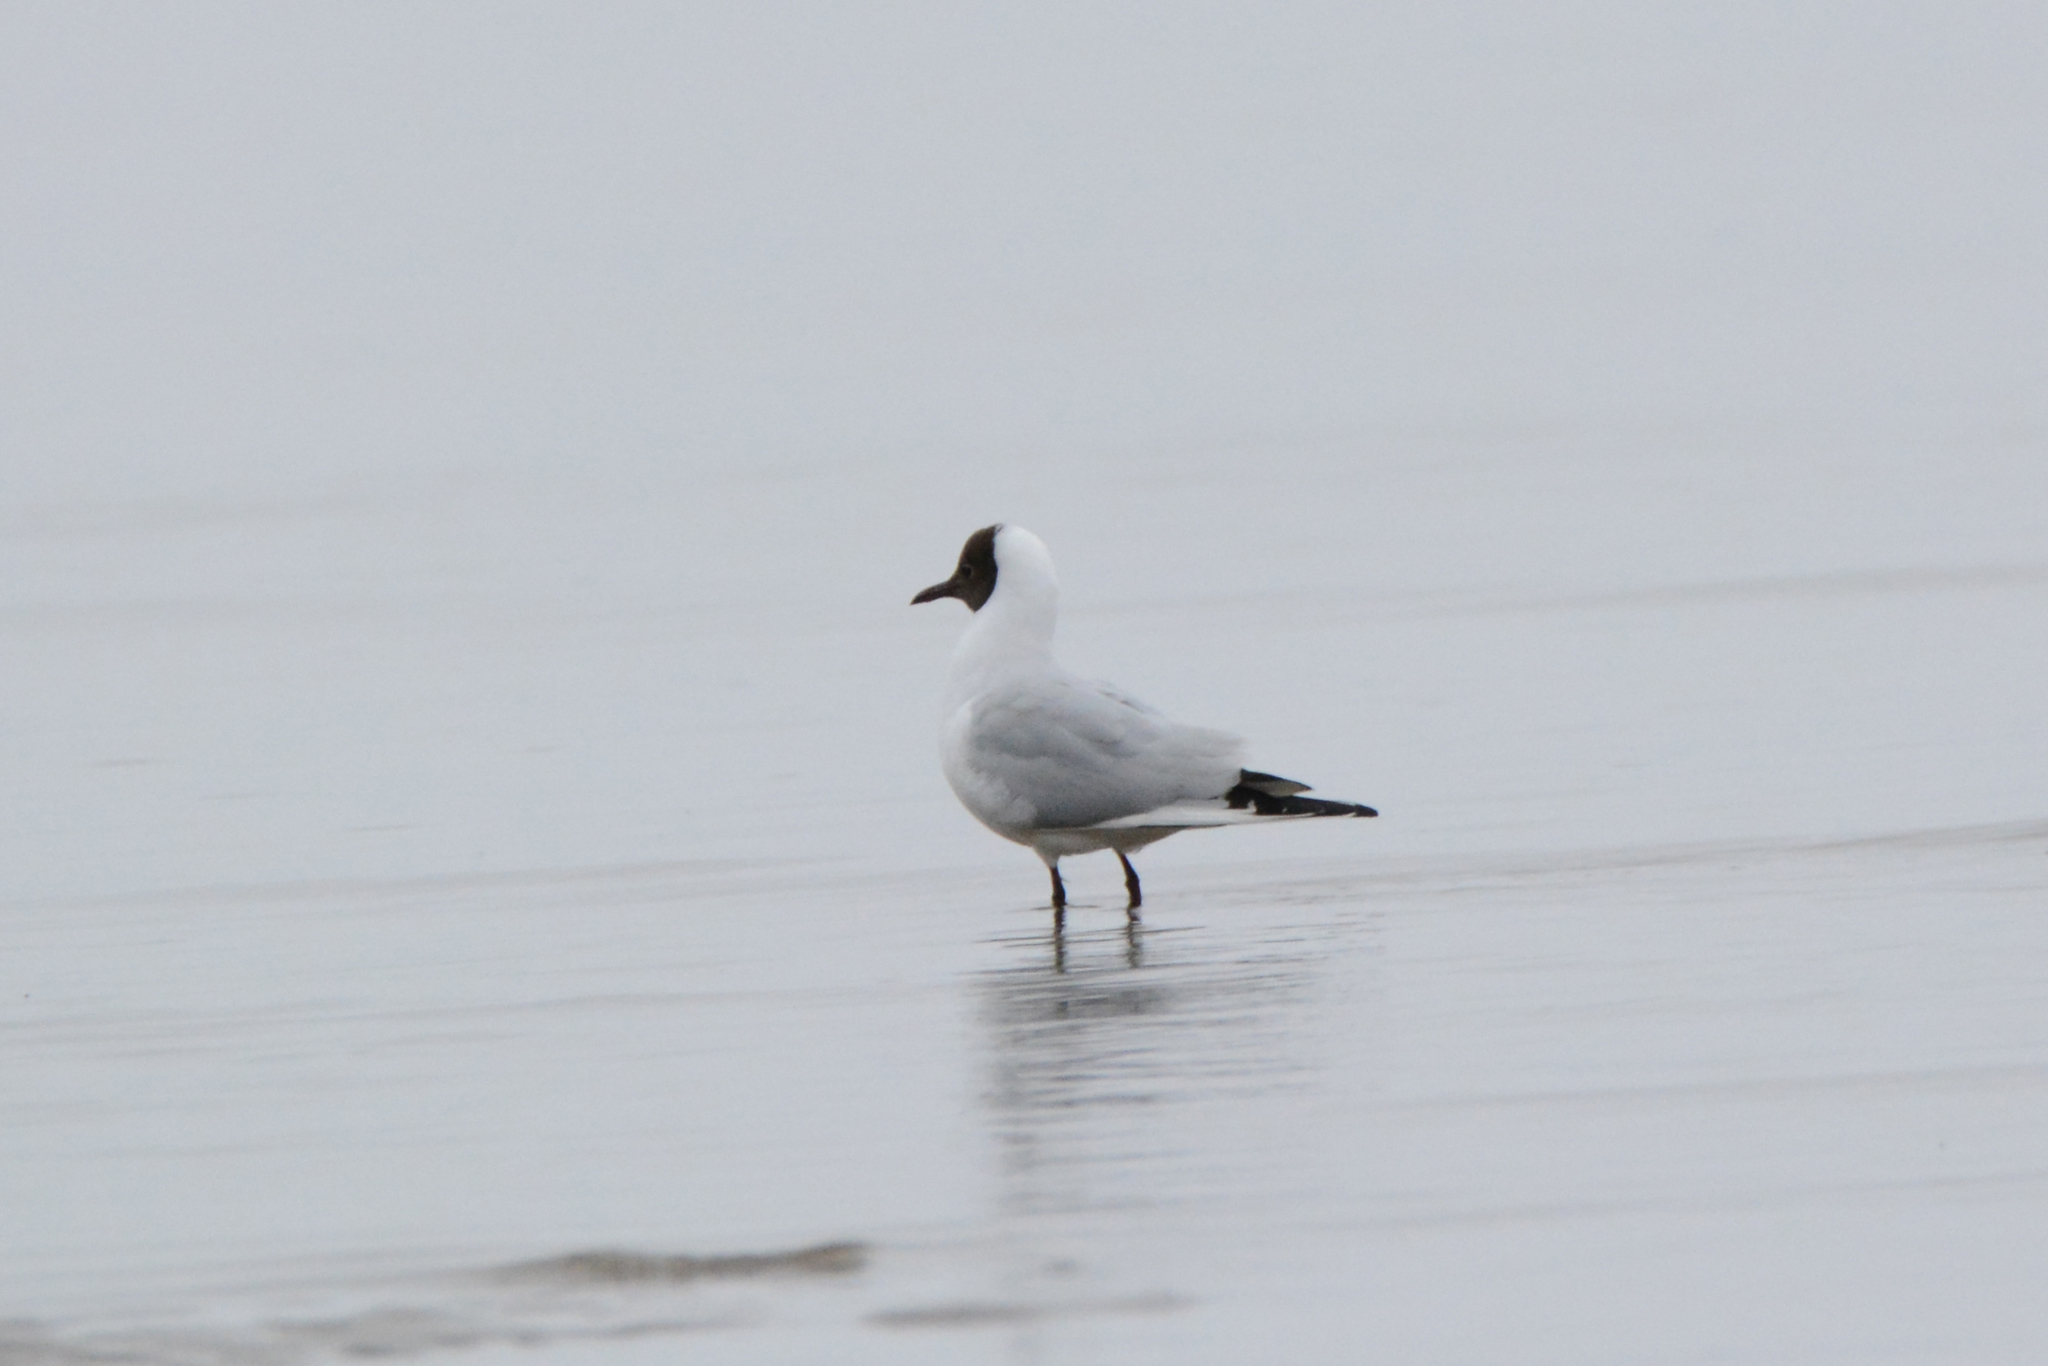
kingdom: Animalia
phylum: Chordata
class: Aves
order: Charadriiformes
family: Laridae
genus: Chroicocephalus
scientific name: Chroicocephalus ridibundus
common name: Black-headed gull
